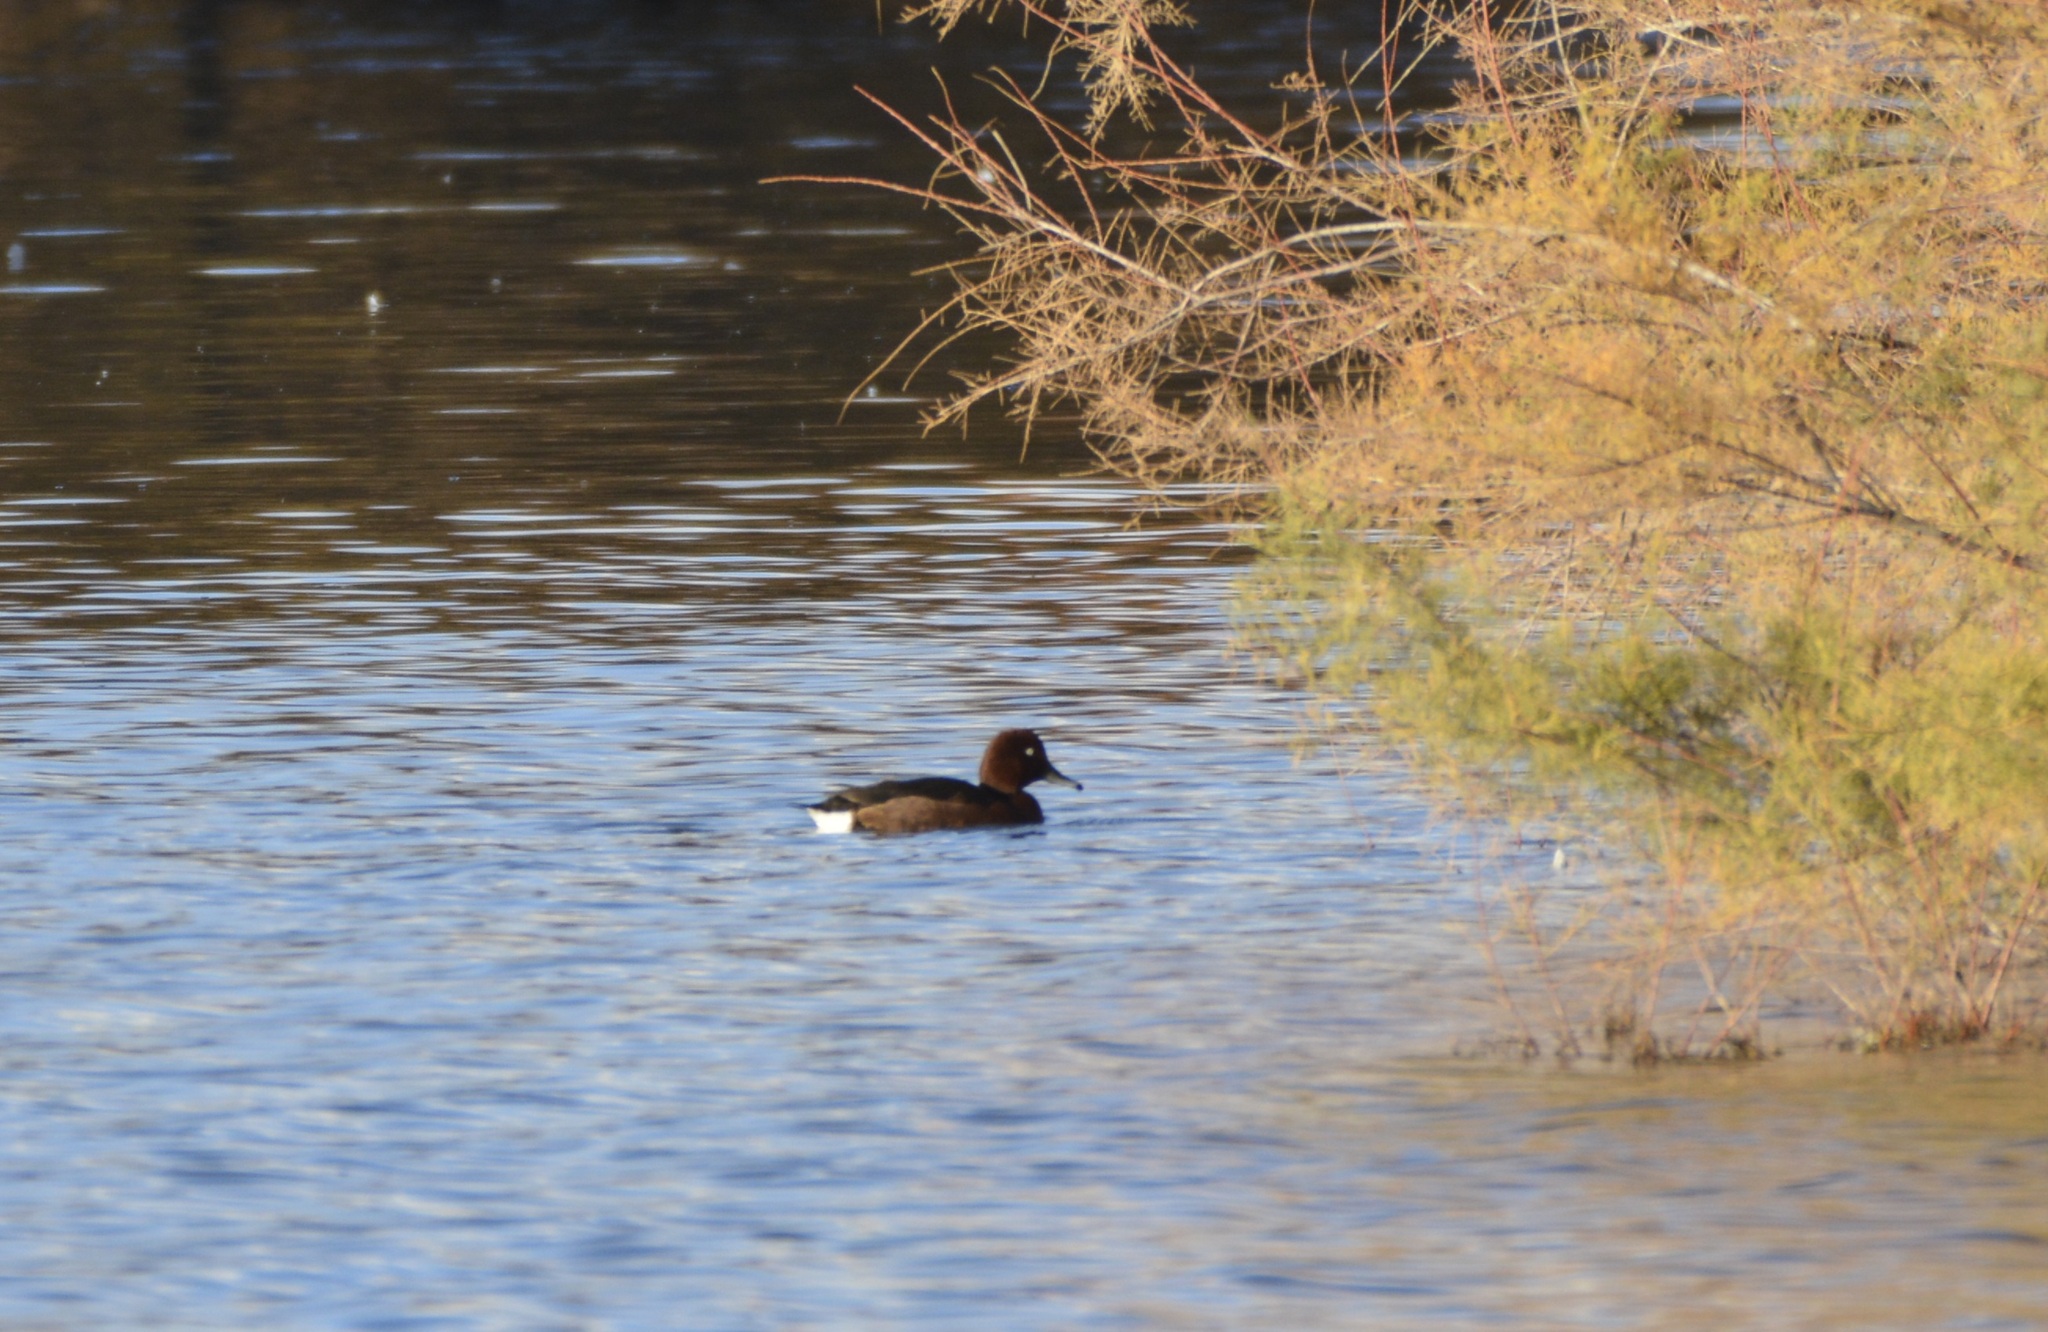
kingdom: Animalia
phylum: Chordata
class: Aves
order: Anseriformes
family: Anatidae
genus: Aythya
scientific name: Aythya nyroca
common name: Ferruginous duck
